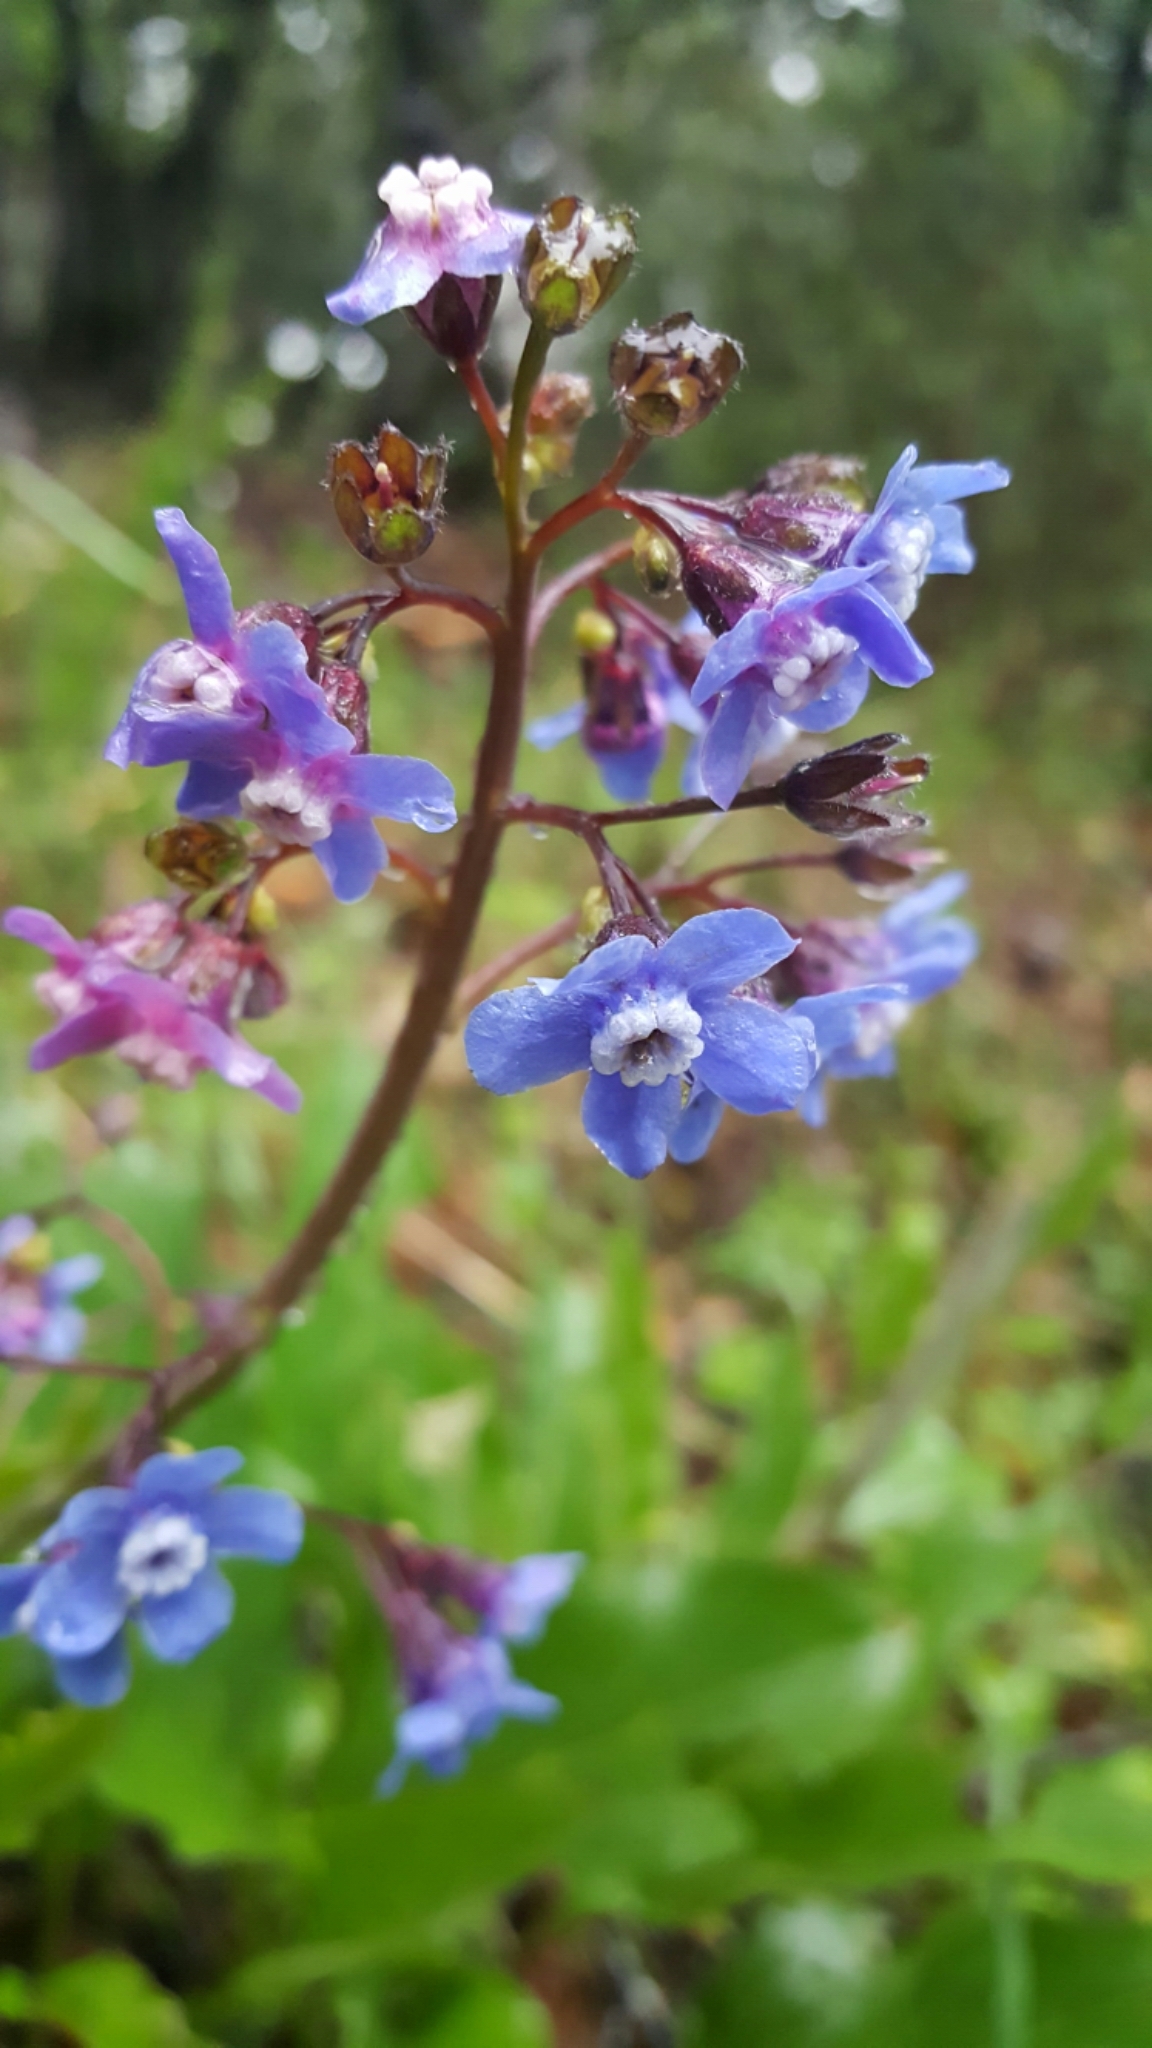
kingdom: Plantae
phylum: Tracheophyta
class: Magnoliopsida
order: Boraginales
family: Boraginaceae
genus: Adelinia
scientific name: Adelinia grande
